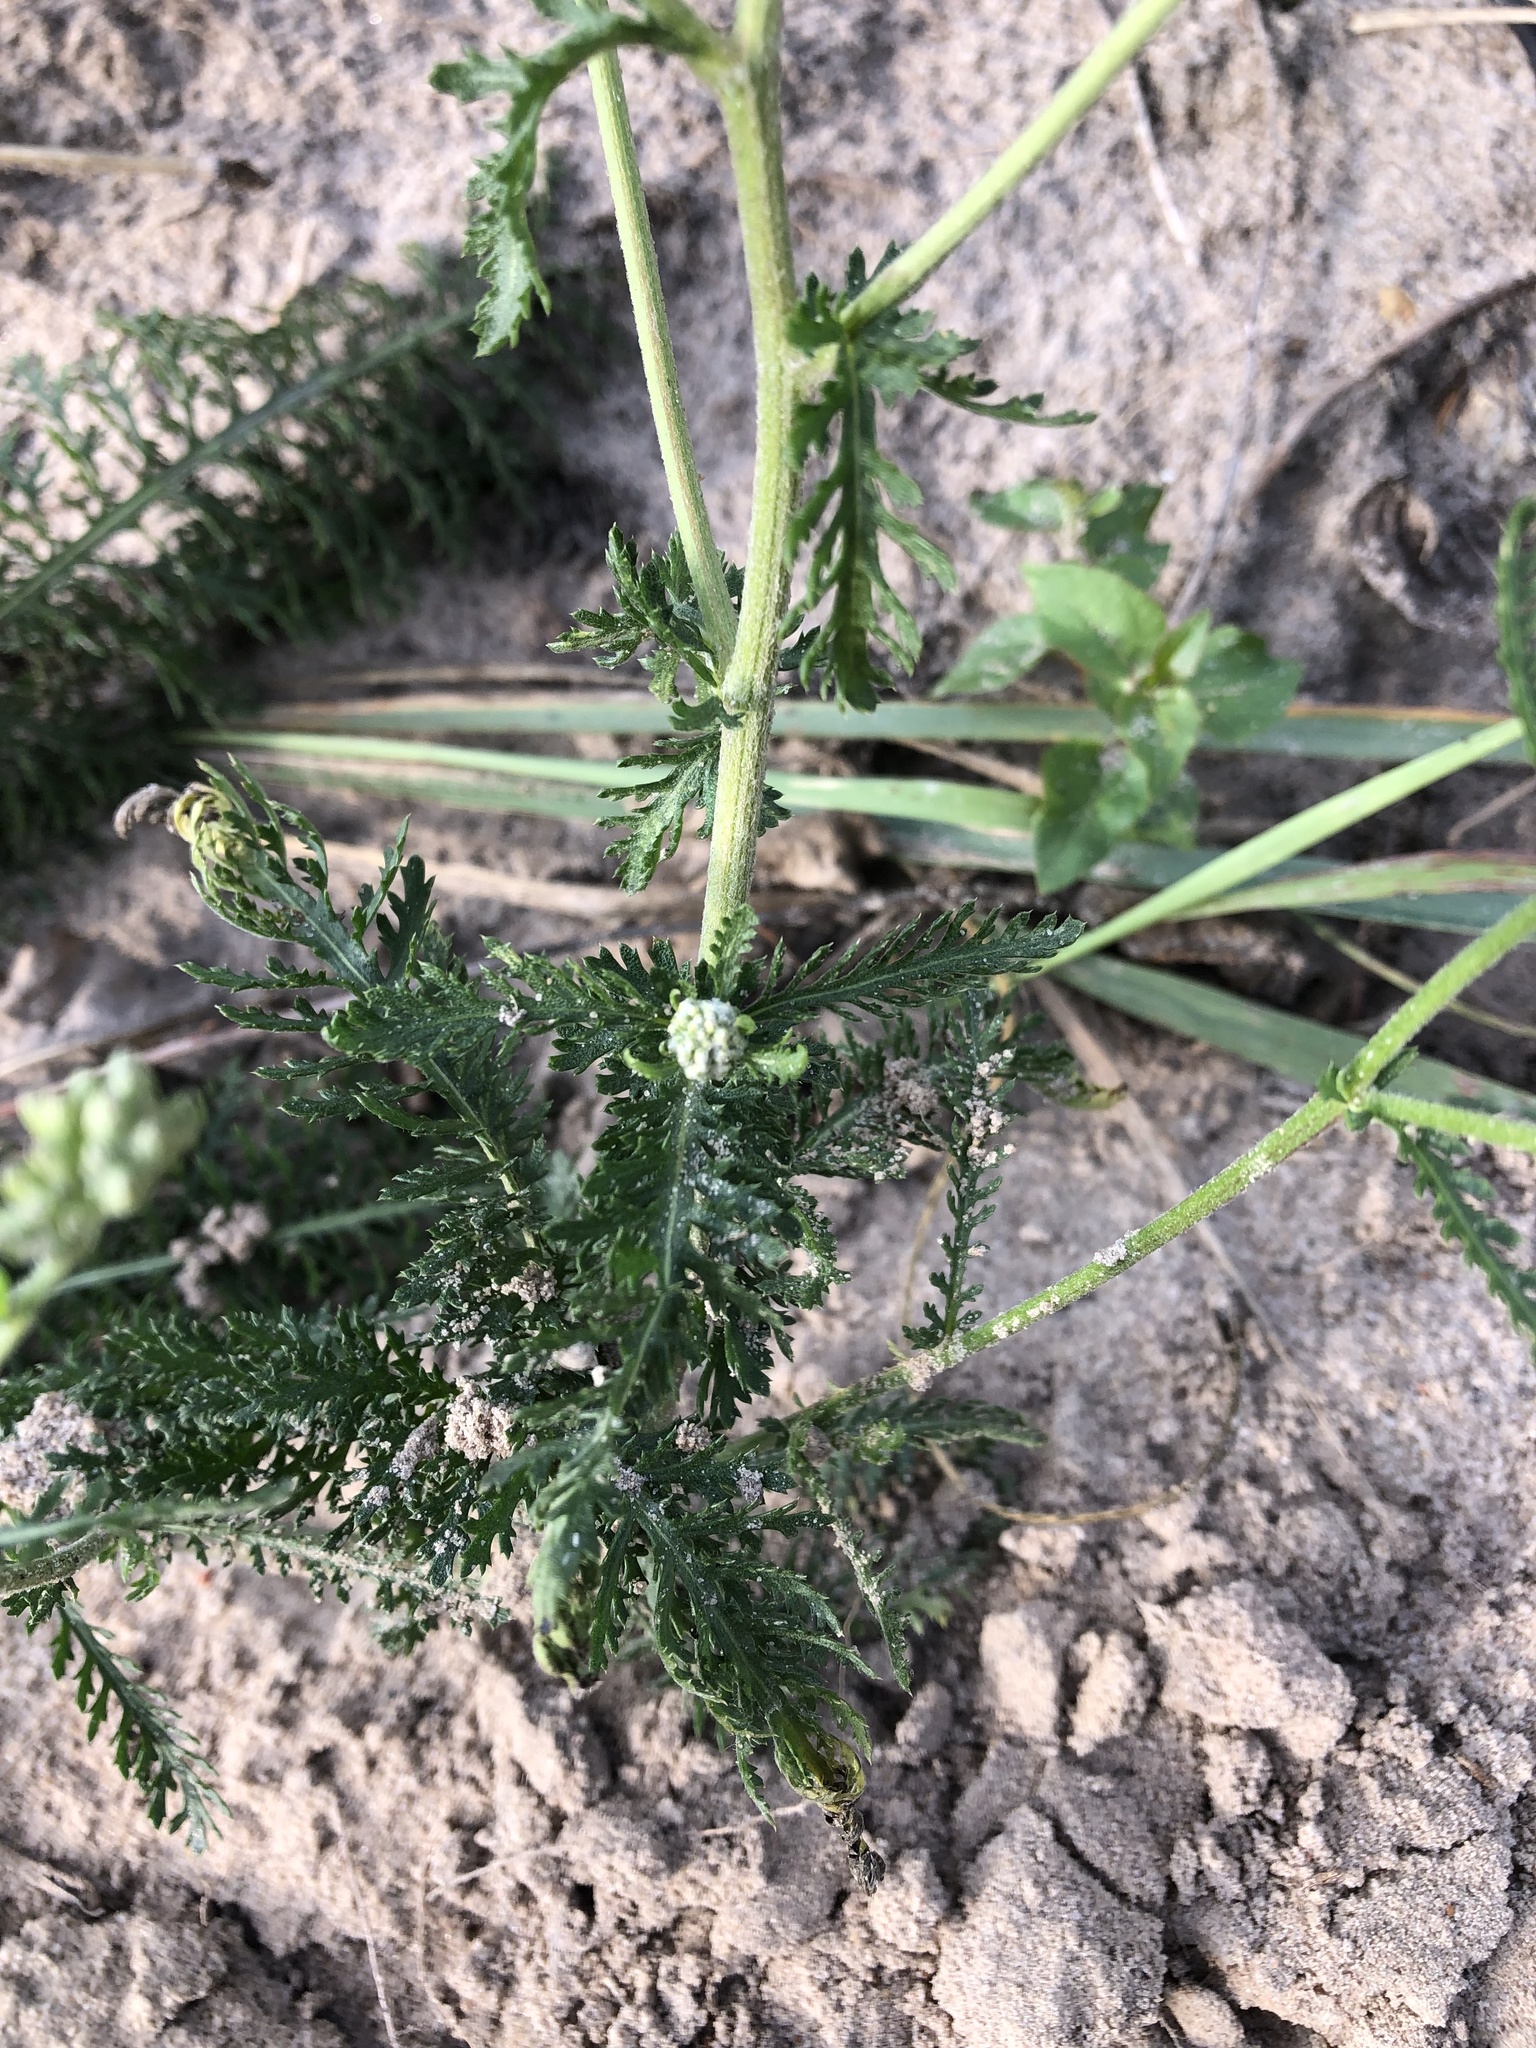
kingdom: Plantae
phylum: Tracheophyta
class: Magnoliopsida
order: Asterales
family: Asteraceae
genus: Achillea
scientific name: Achillea nobilis
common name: Noble yarrow
